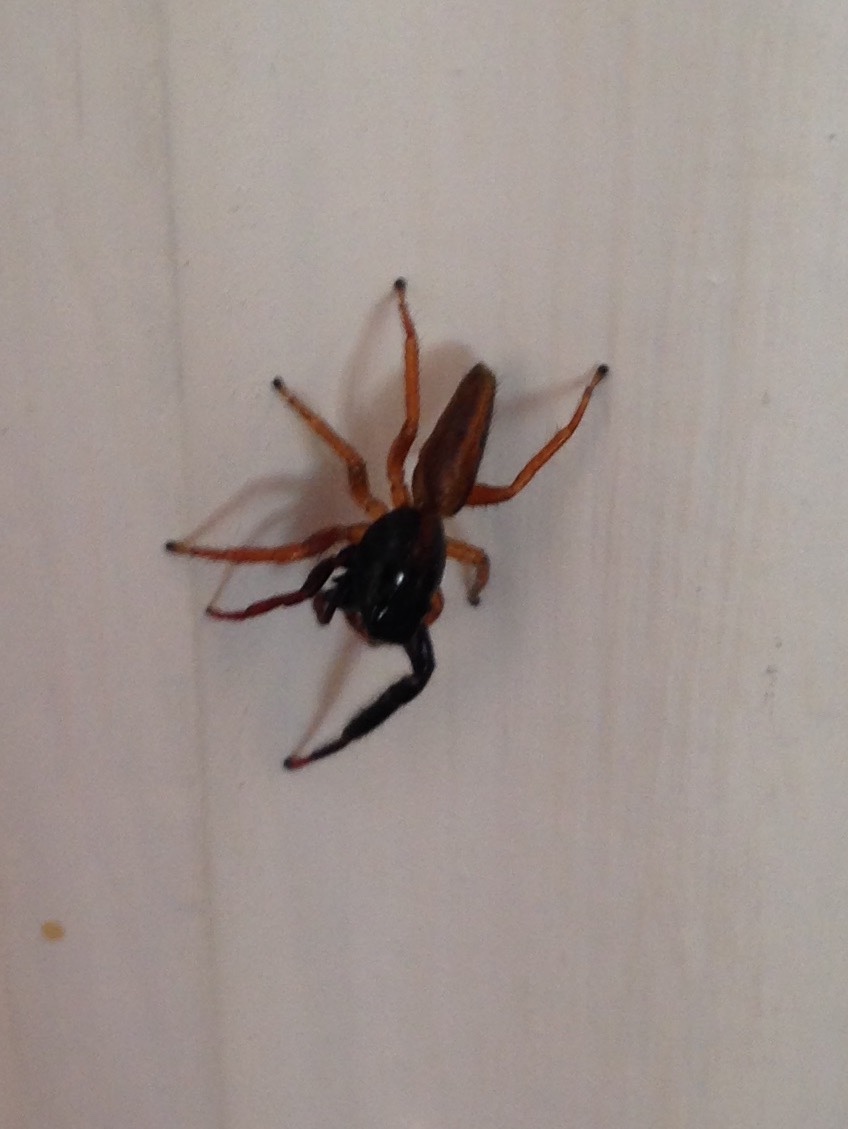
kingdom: Animalia
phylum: Arthropoda
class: Arachnida
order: Araneae
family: Salticidae
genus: Trite
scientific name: Trite planiceps
